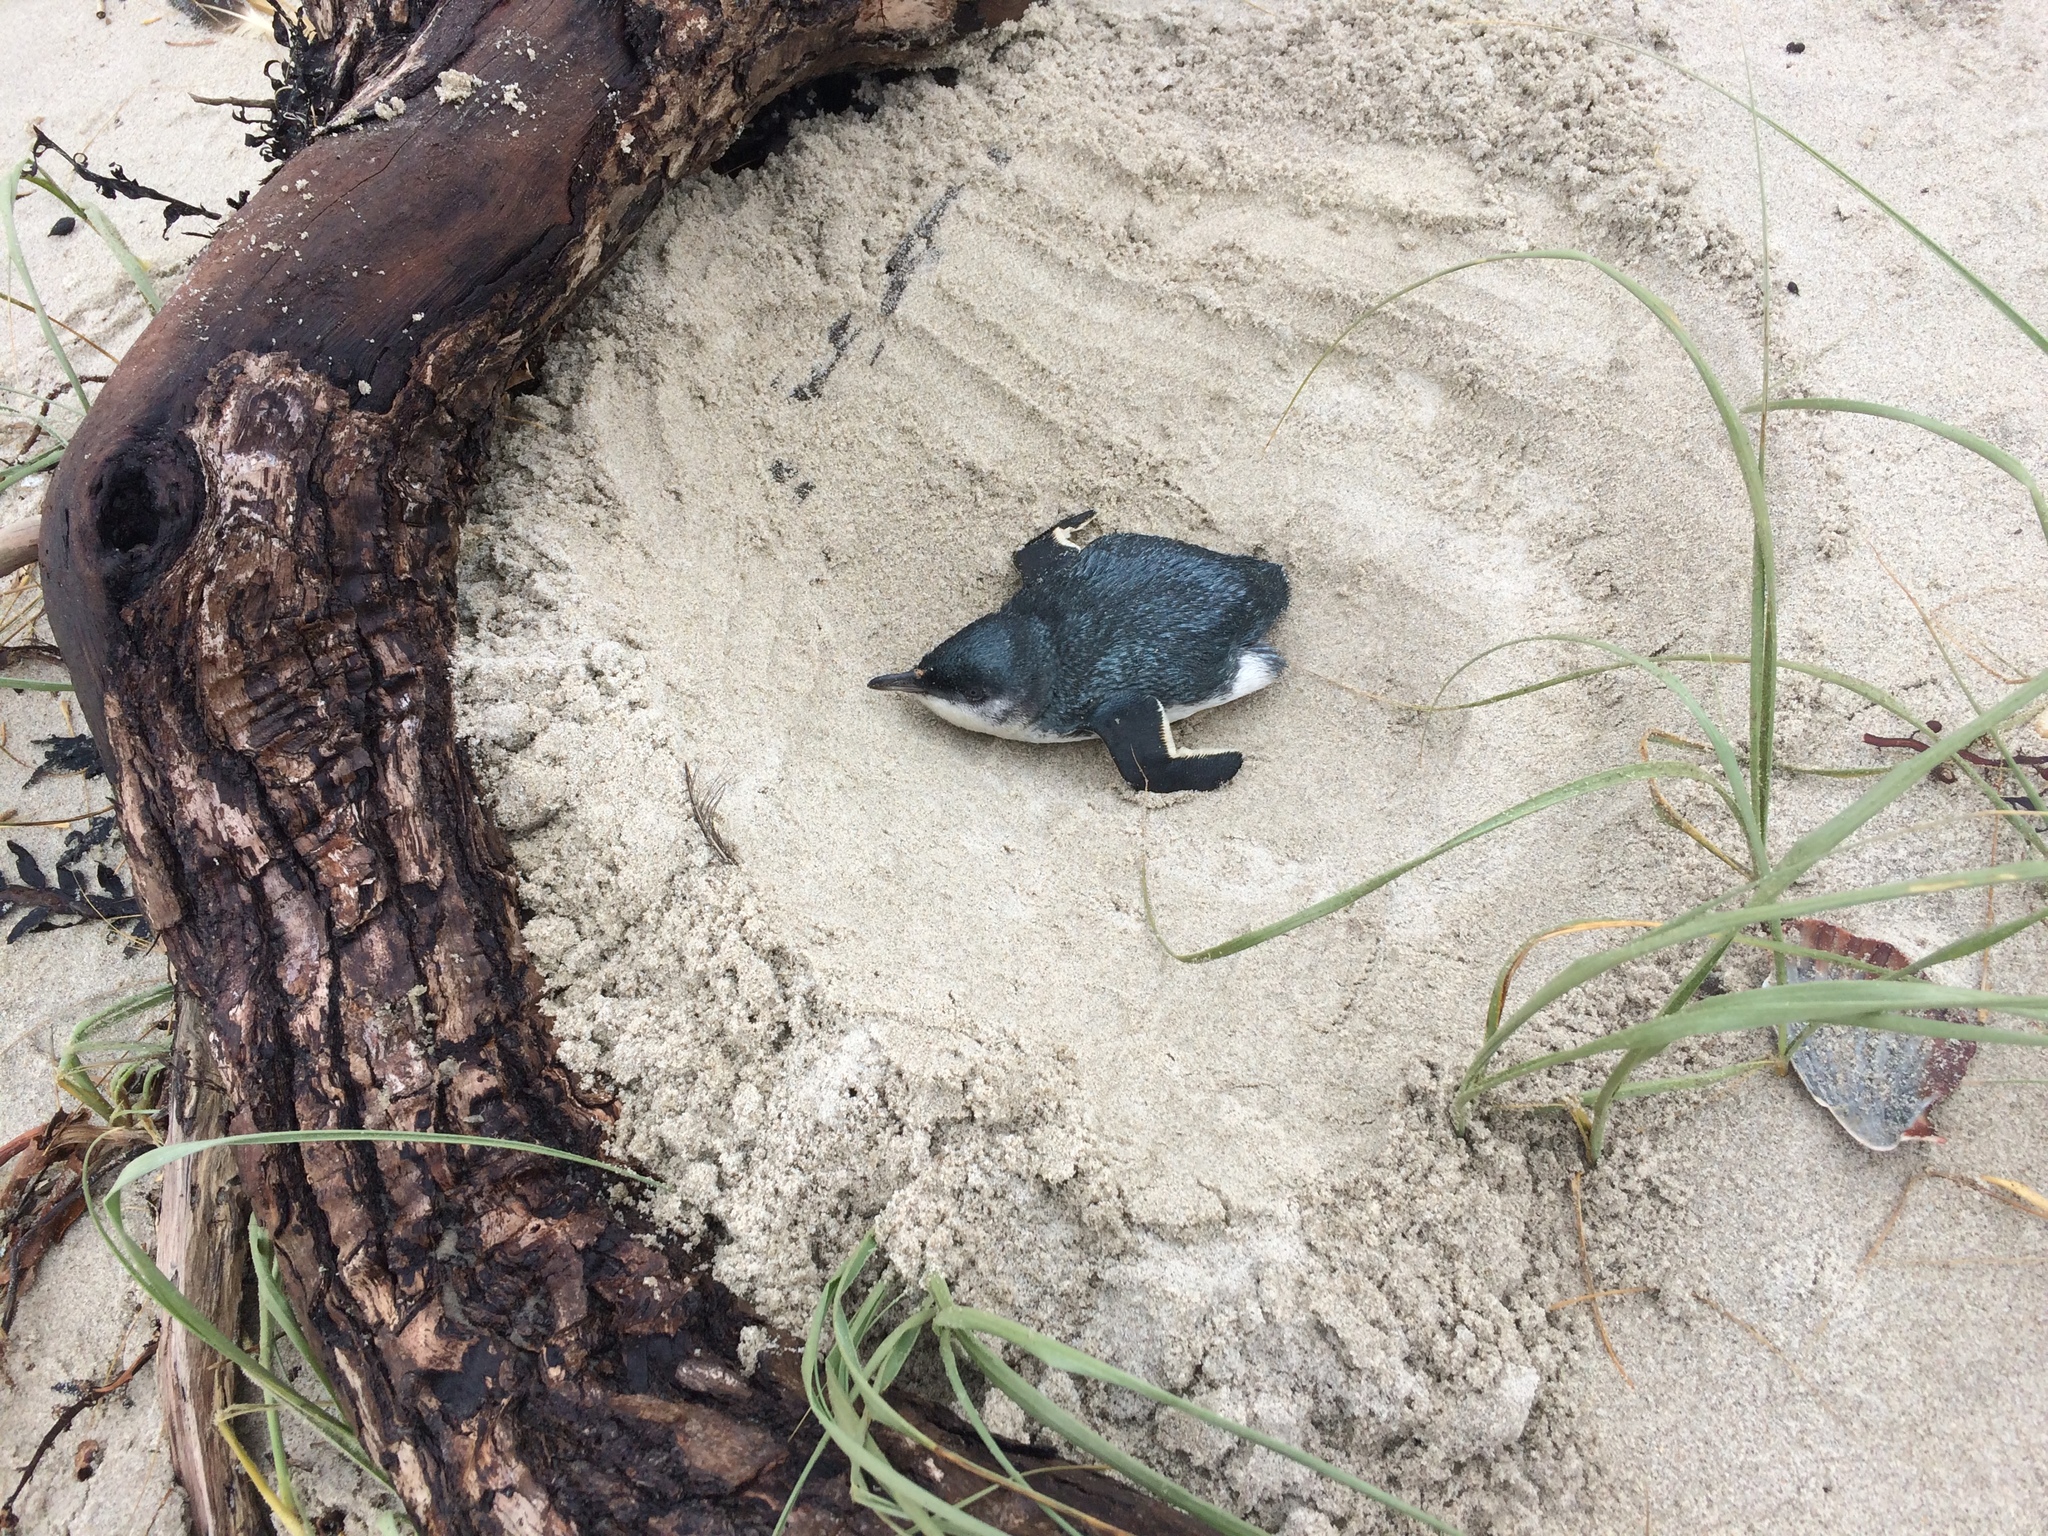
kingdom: Animalia
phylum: Chordata
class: Aves
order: Sphenisciformes
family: Spheniscidae
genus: Eudyptula
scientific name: Eudyptula minor
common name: Little penguin
